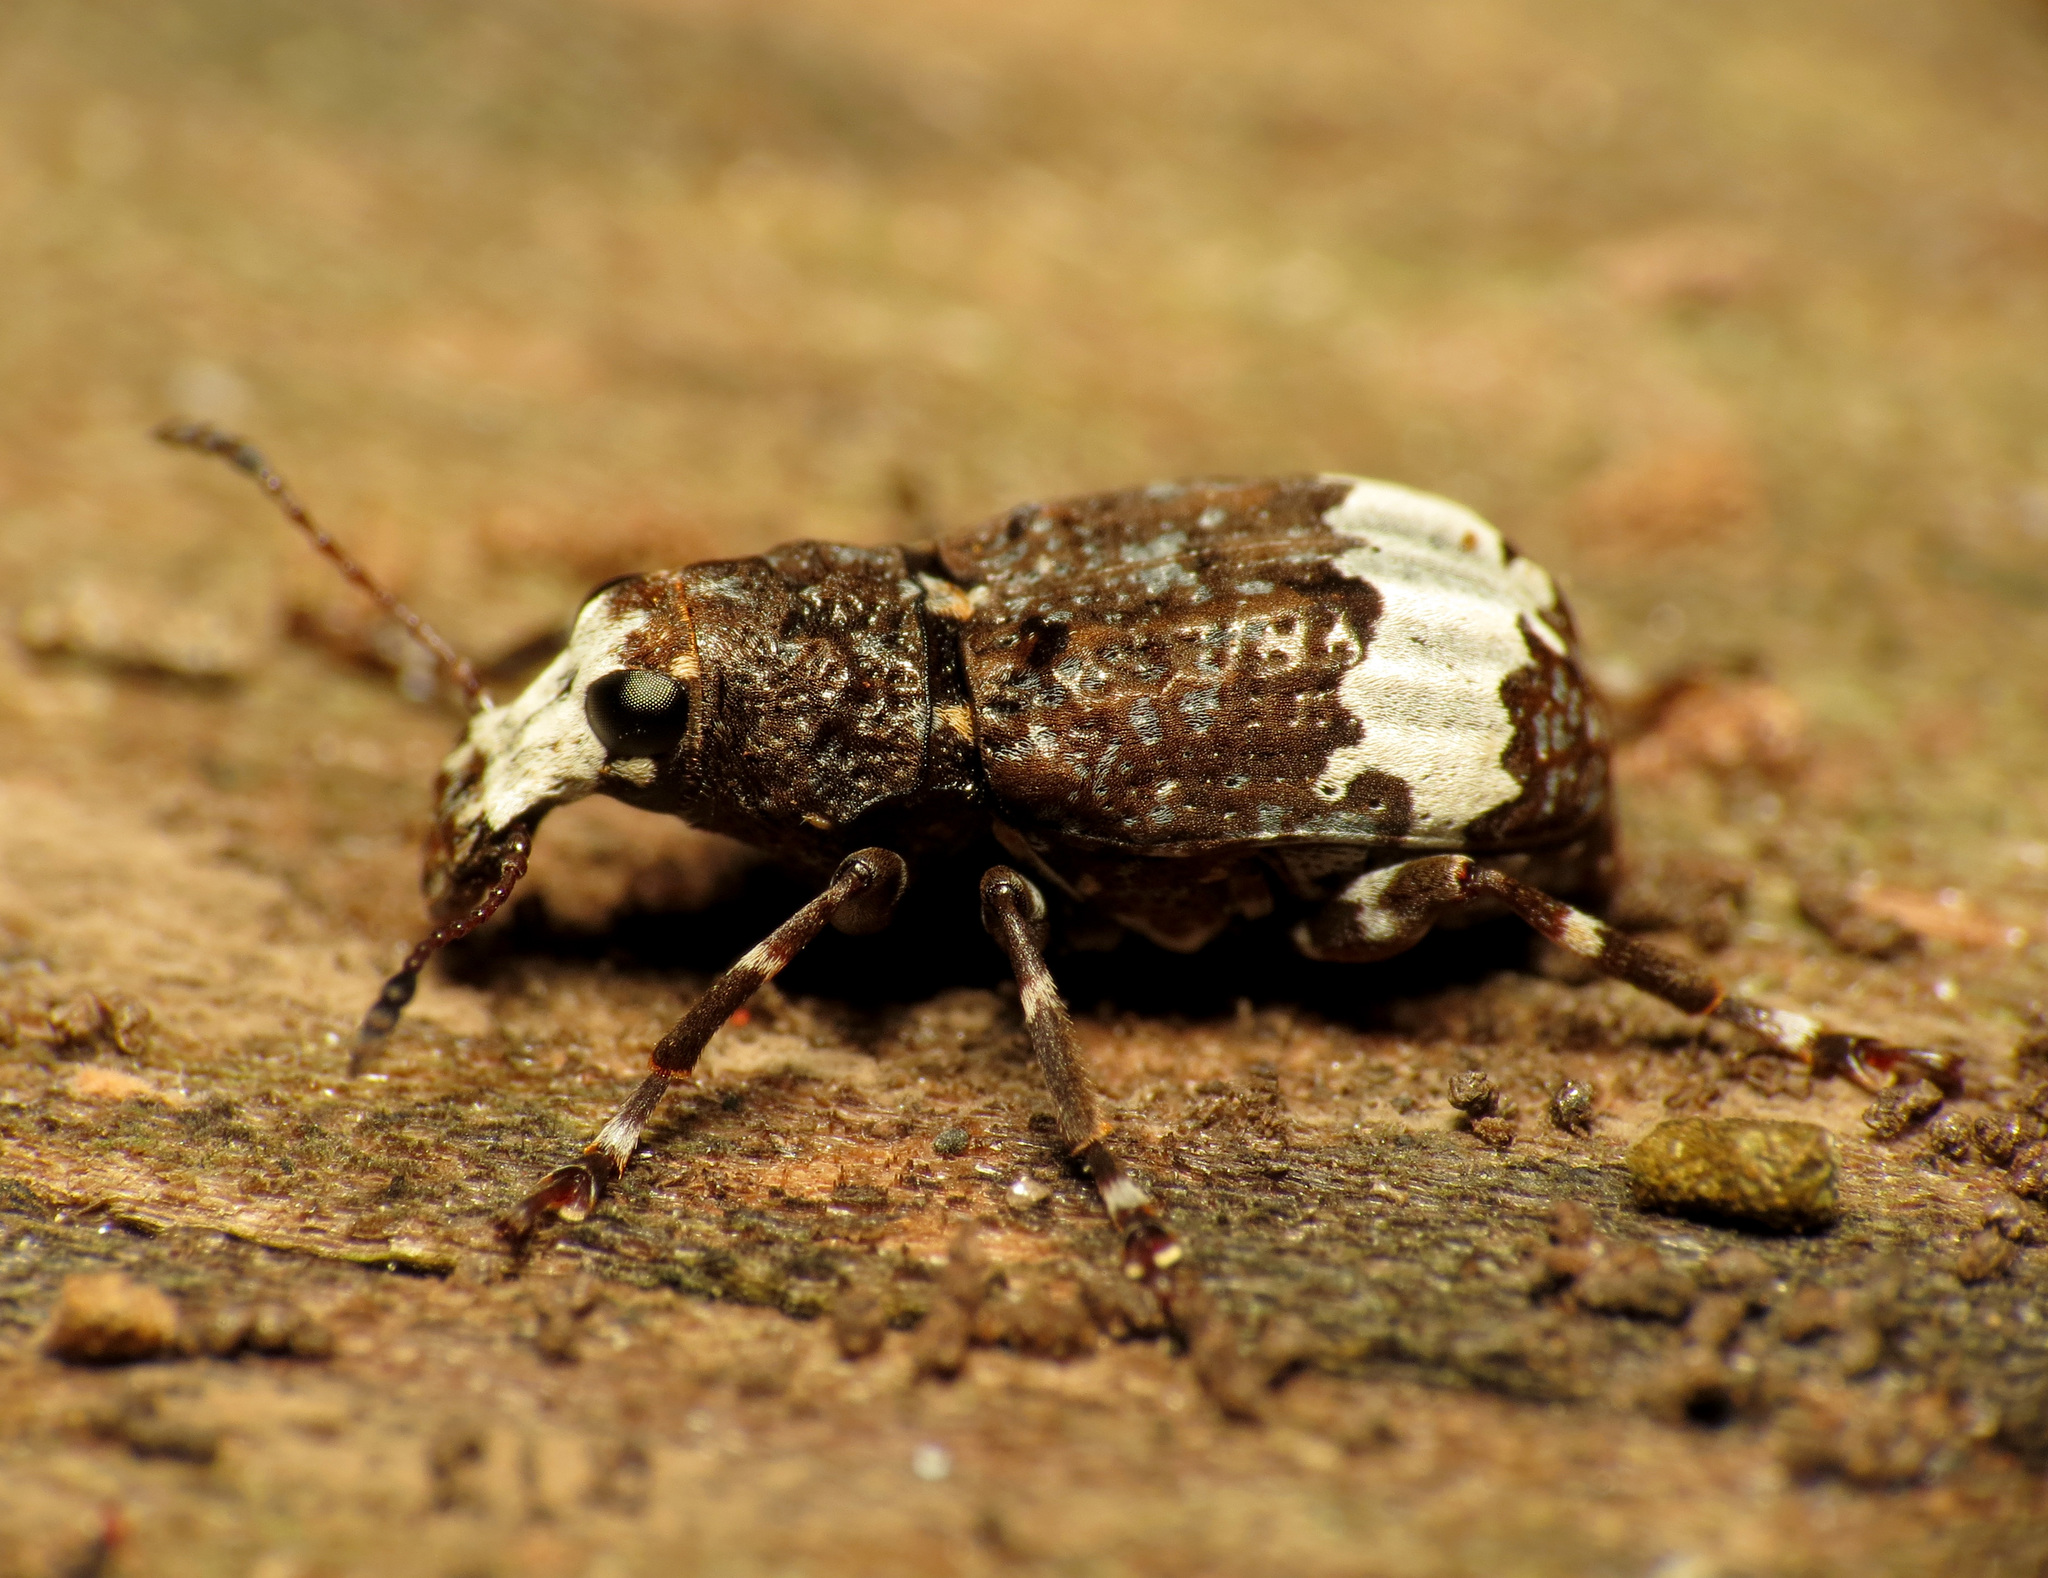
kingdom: Animalia
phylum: Arthropoda
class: Insecta
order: Coleoptera
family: Anthribidae
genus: Eurymycter
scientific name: Eurymycter fasciatus
